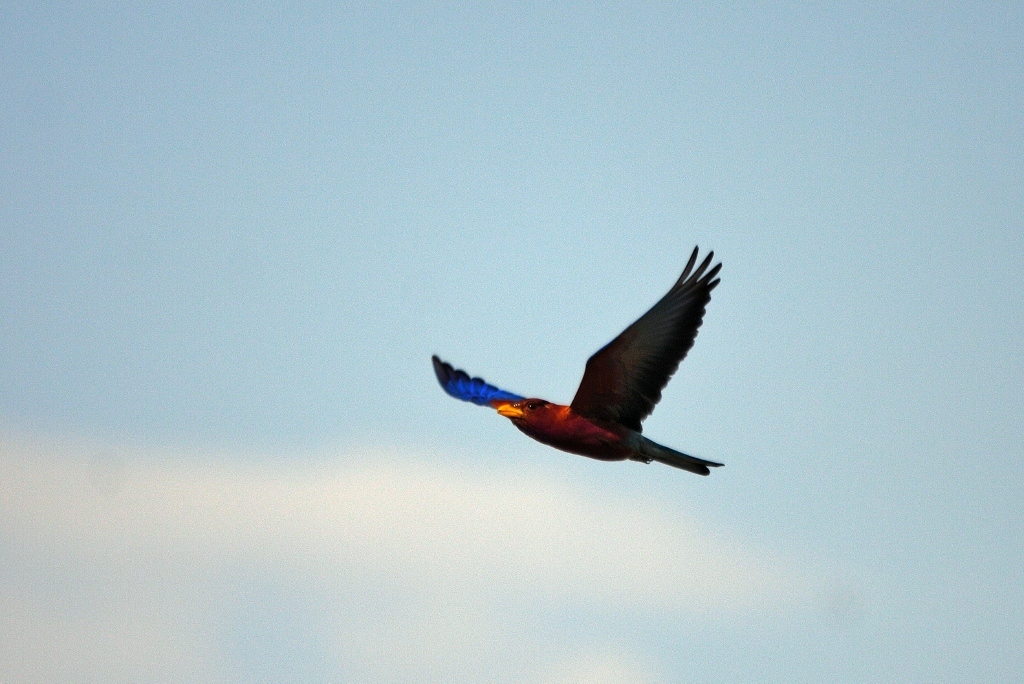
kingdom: Animalia
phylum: Chordata
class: Aves
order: Coraciiformes
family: Coraciidae
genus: Eurystomus
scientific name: Eurystomus glaucurus
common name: Broad-billed roller
